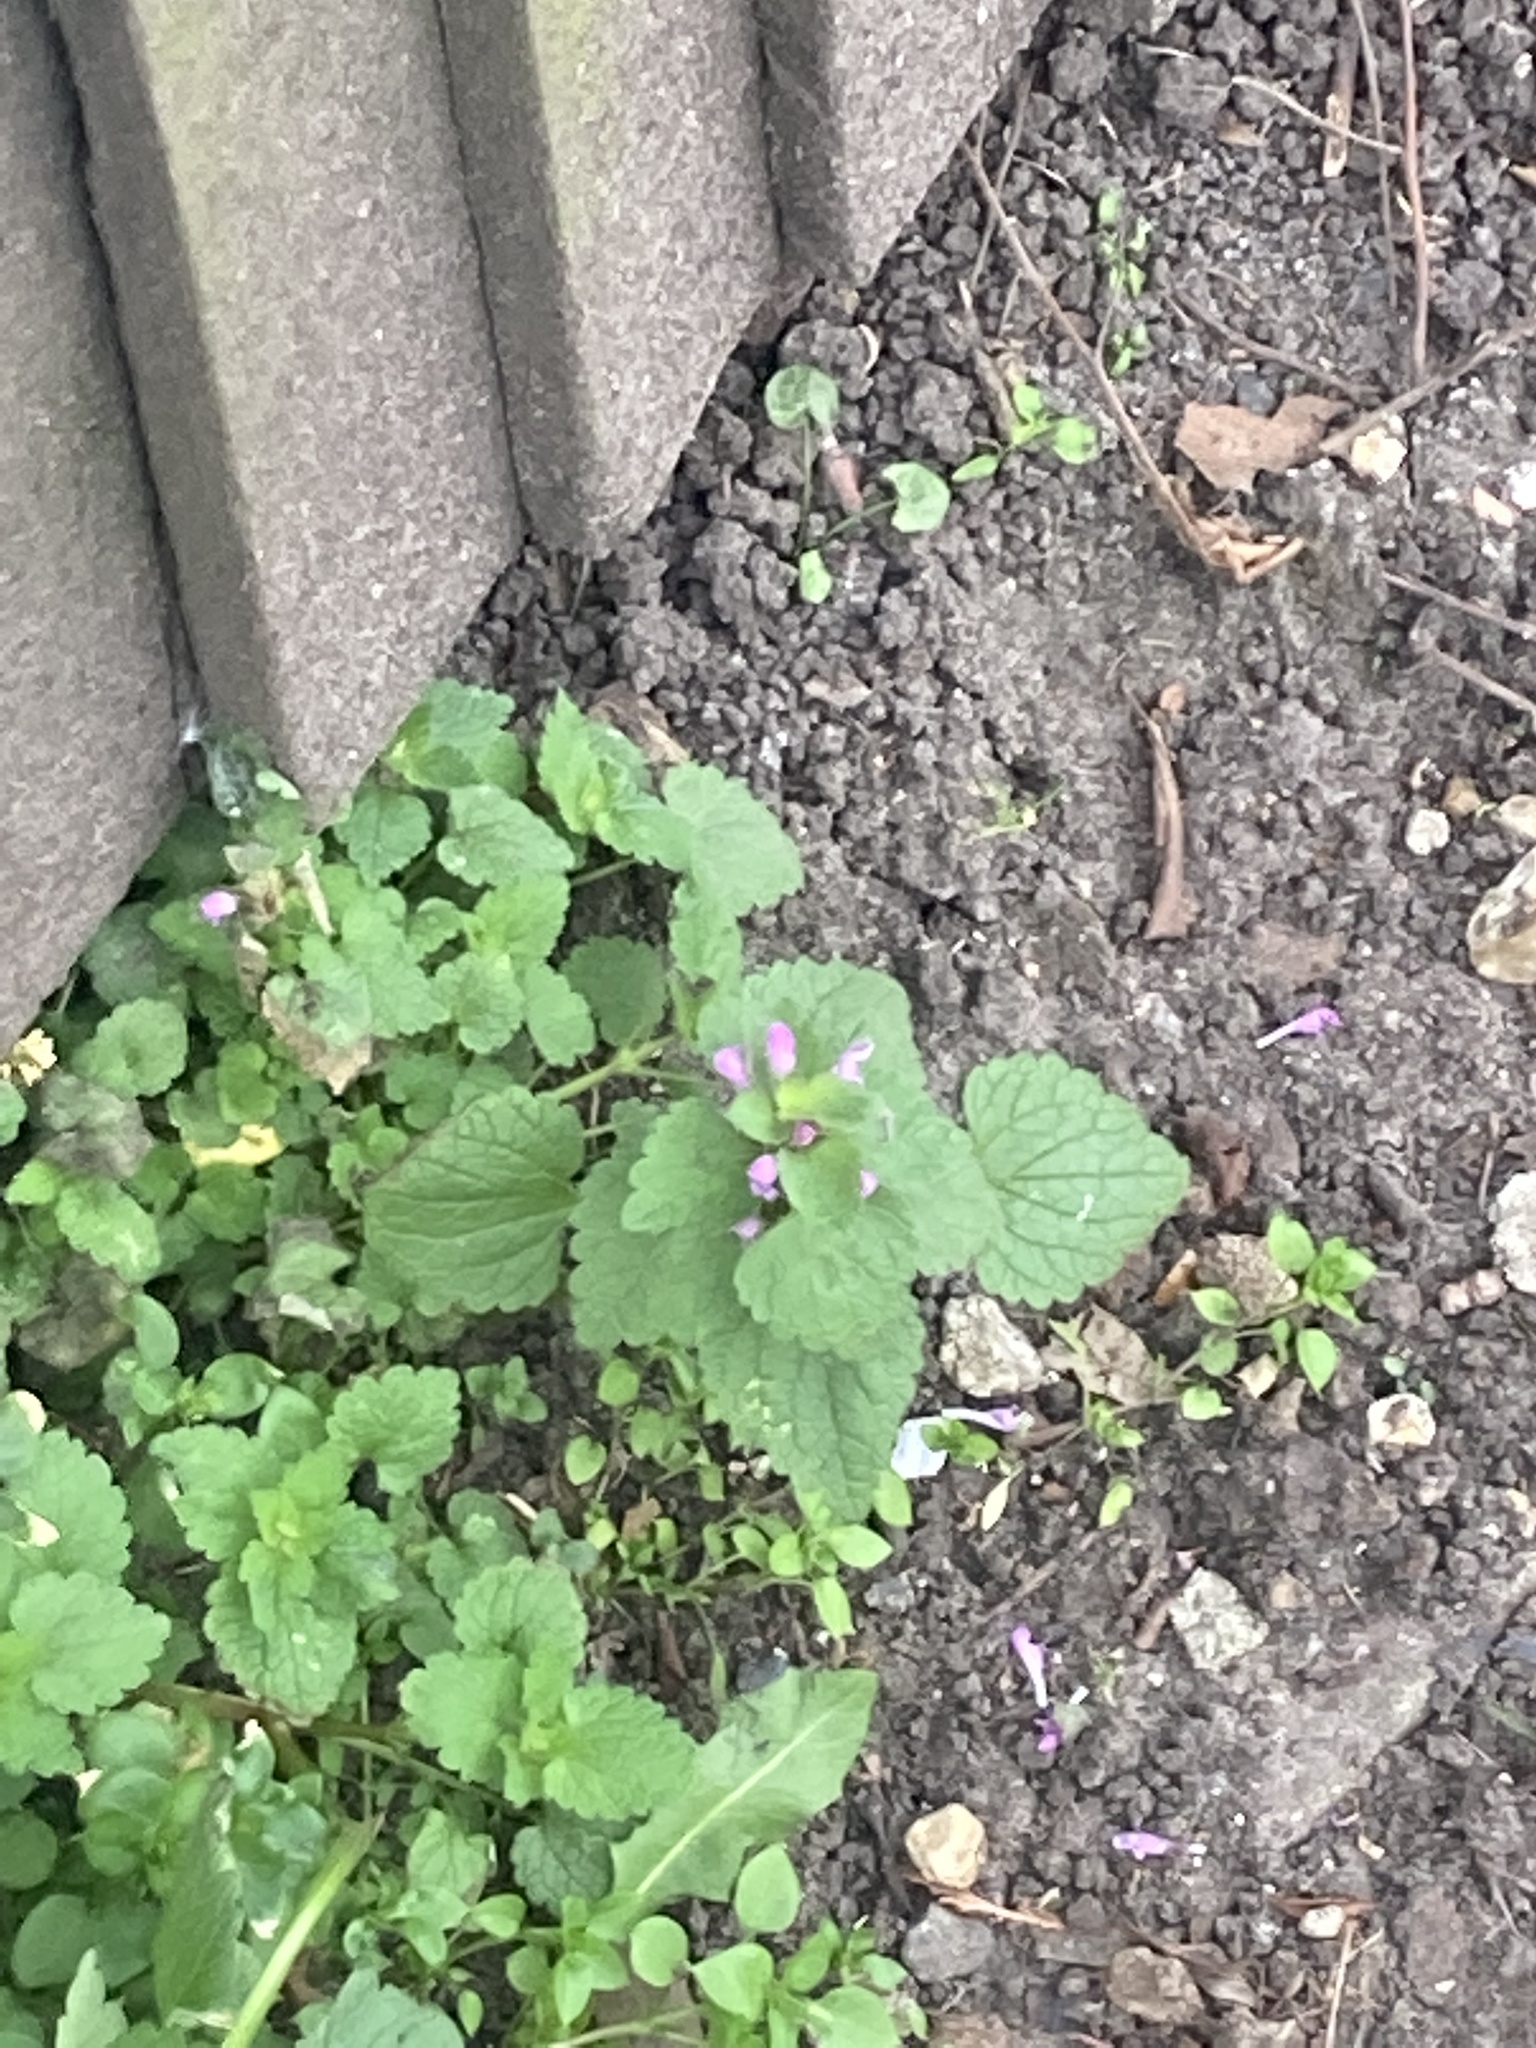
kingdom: Plantae
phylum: Tracheophyta
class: Magnoliopsida
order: Lamiales
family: Lamiaceae
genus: Lamium
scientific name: Lamium purpureum
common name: Red dead-nettle
